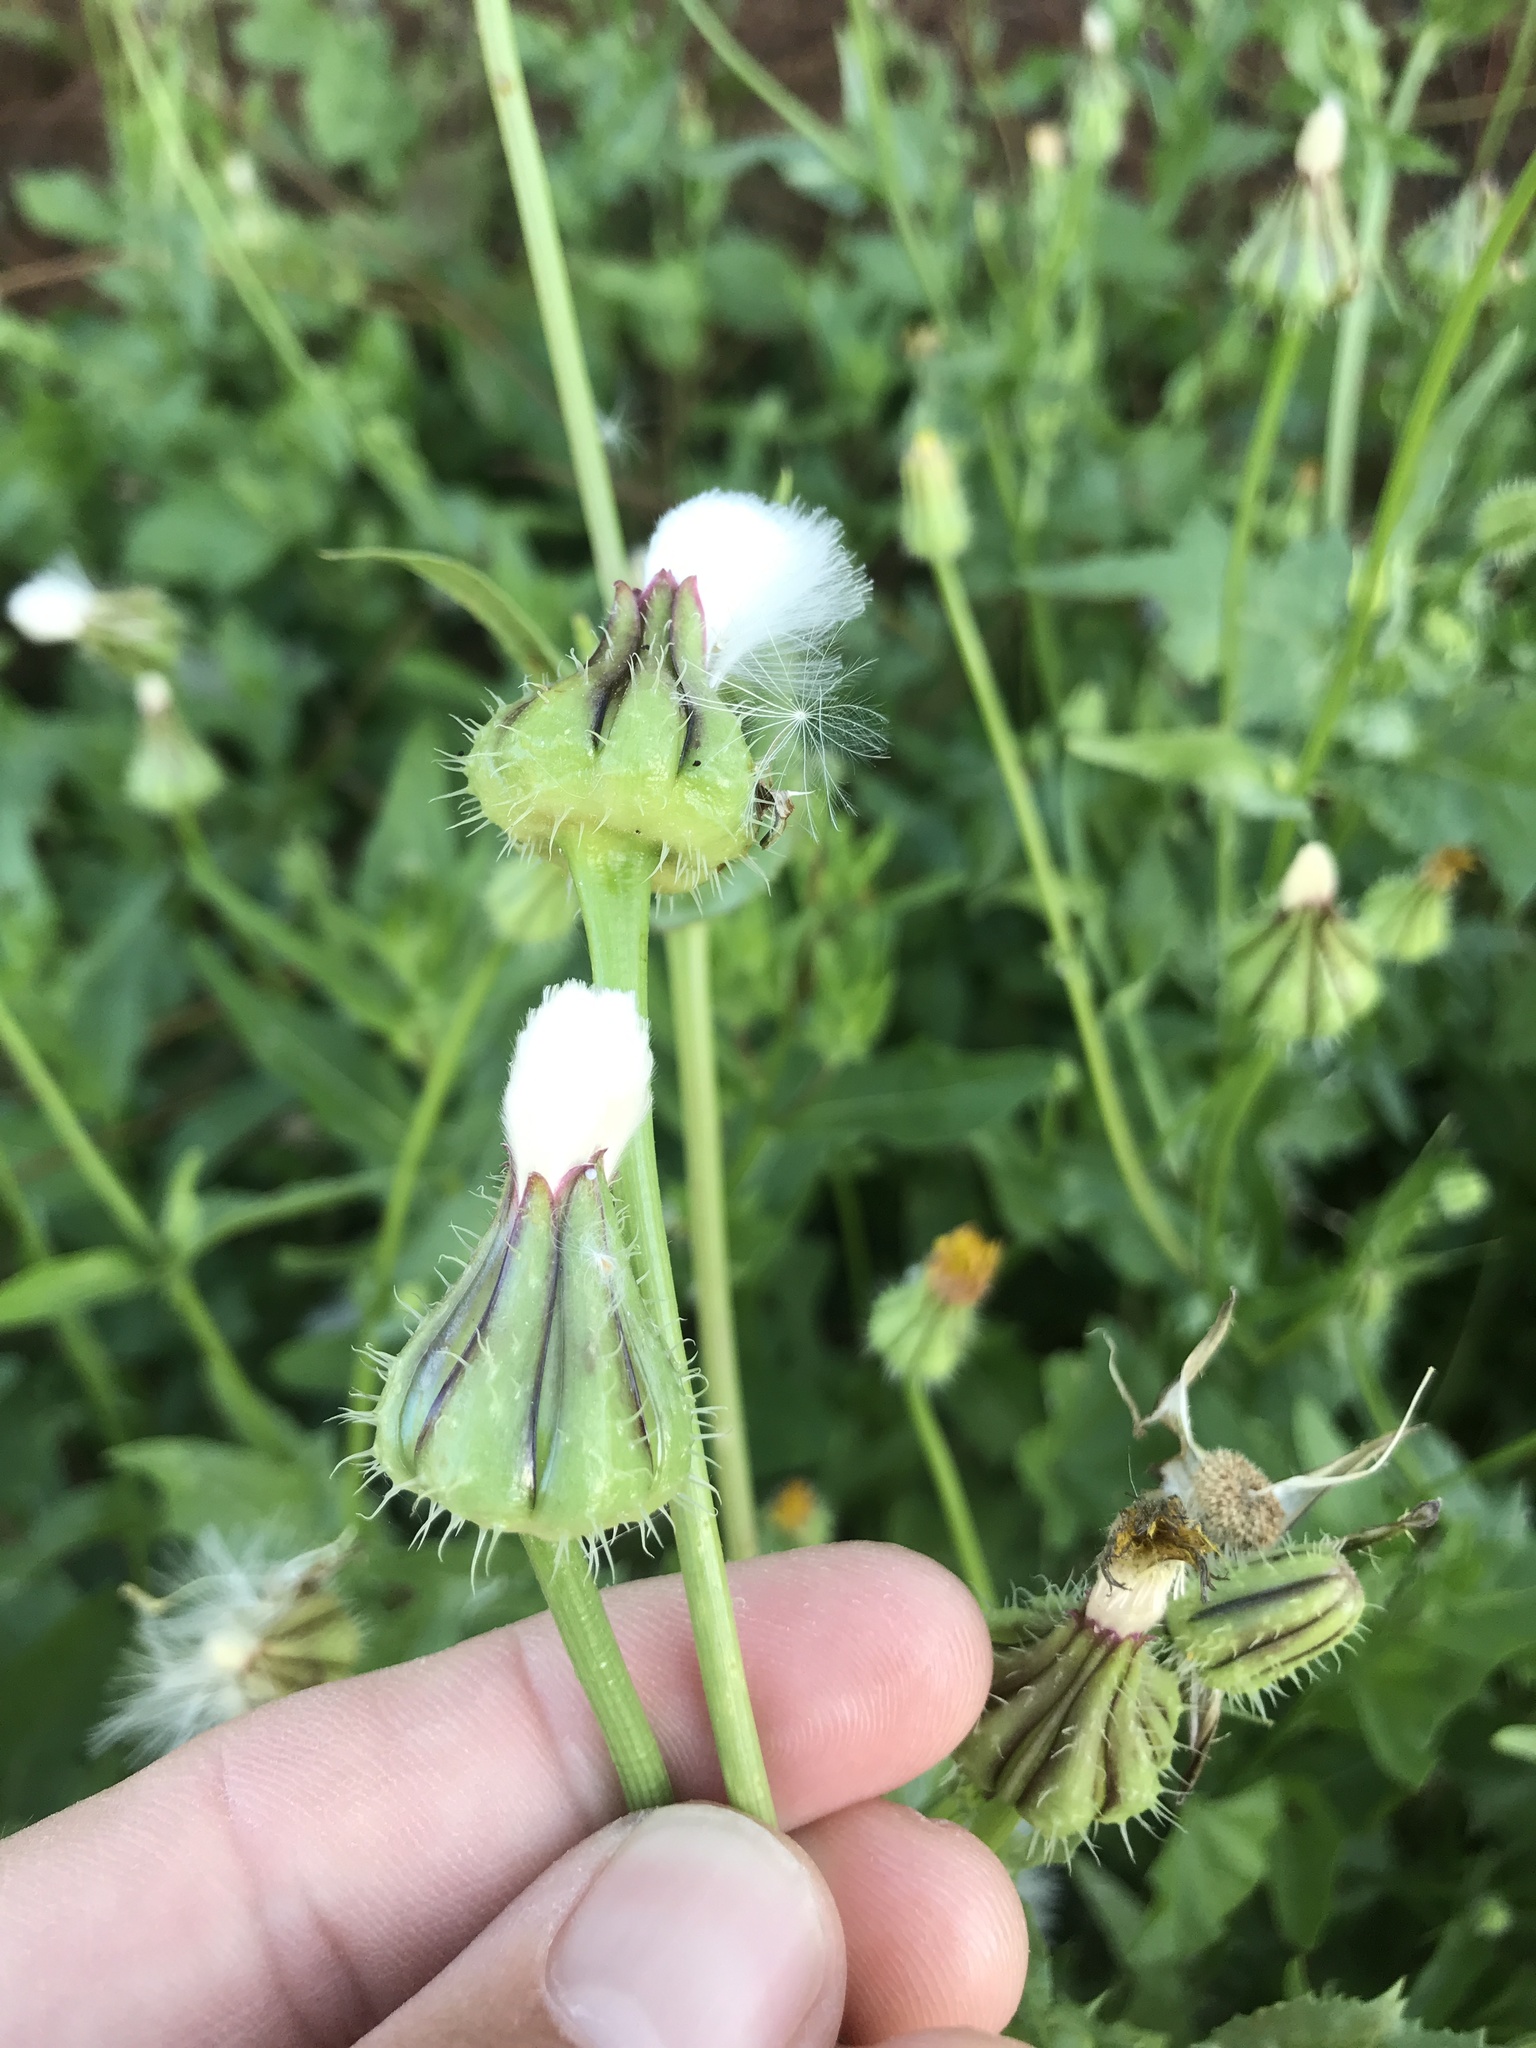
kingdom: Plantae
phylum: Tracheophyta
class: Magnoliopsida
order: Asterales
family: Asteraceae
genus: Urospermum
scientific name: Urospermum picroides
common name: False hawkbit
